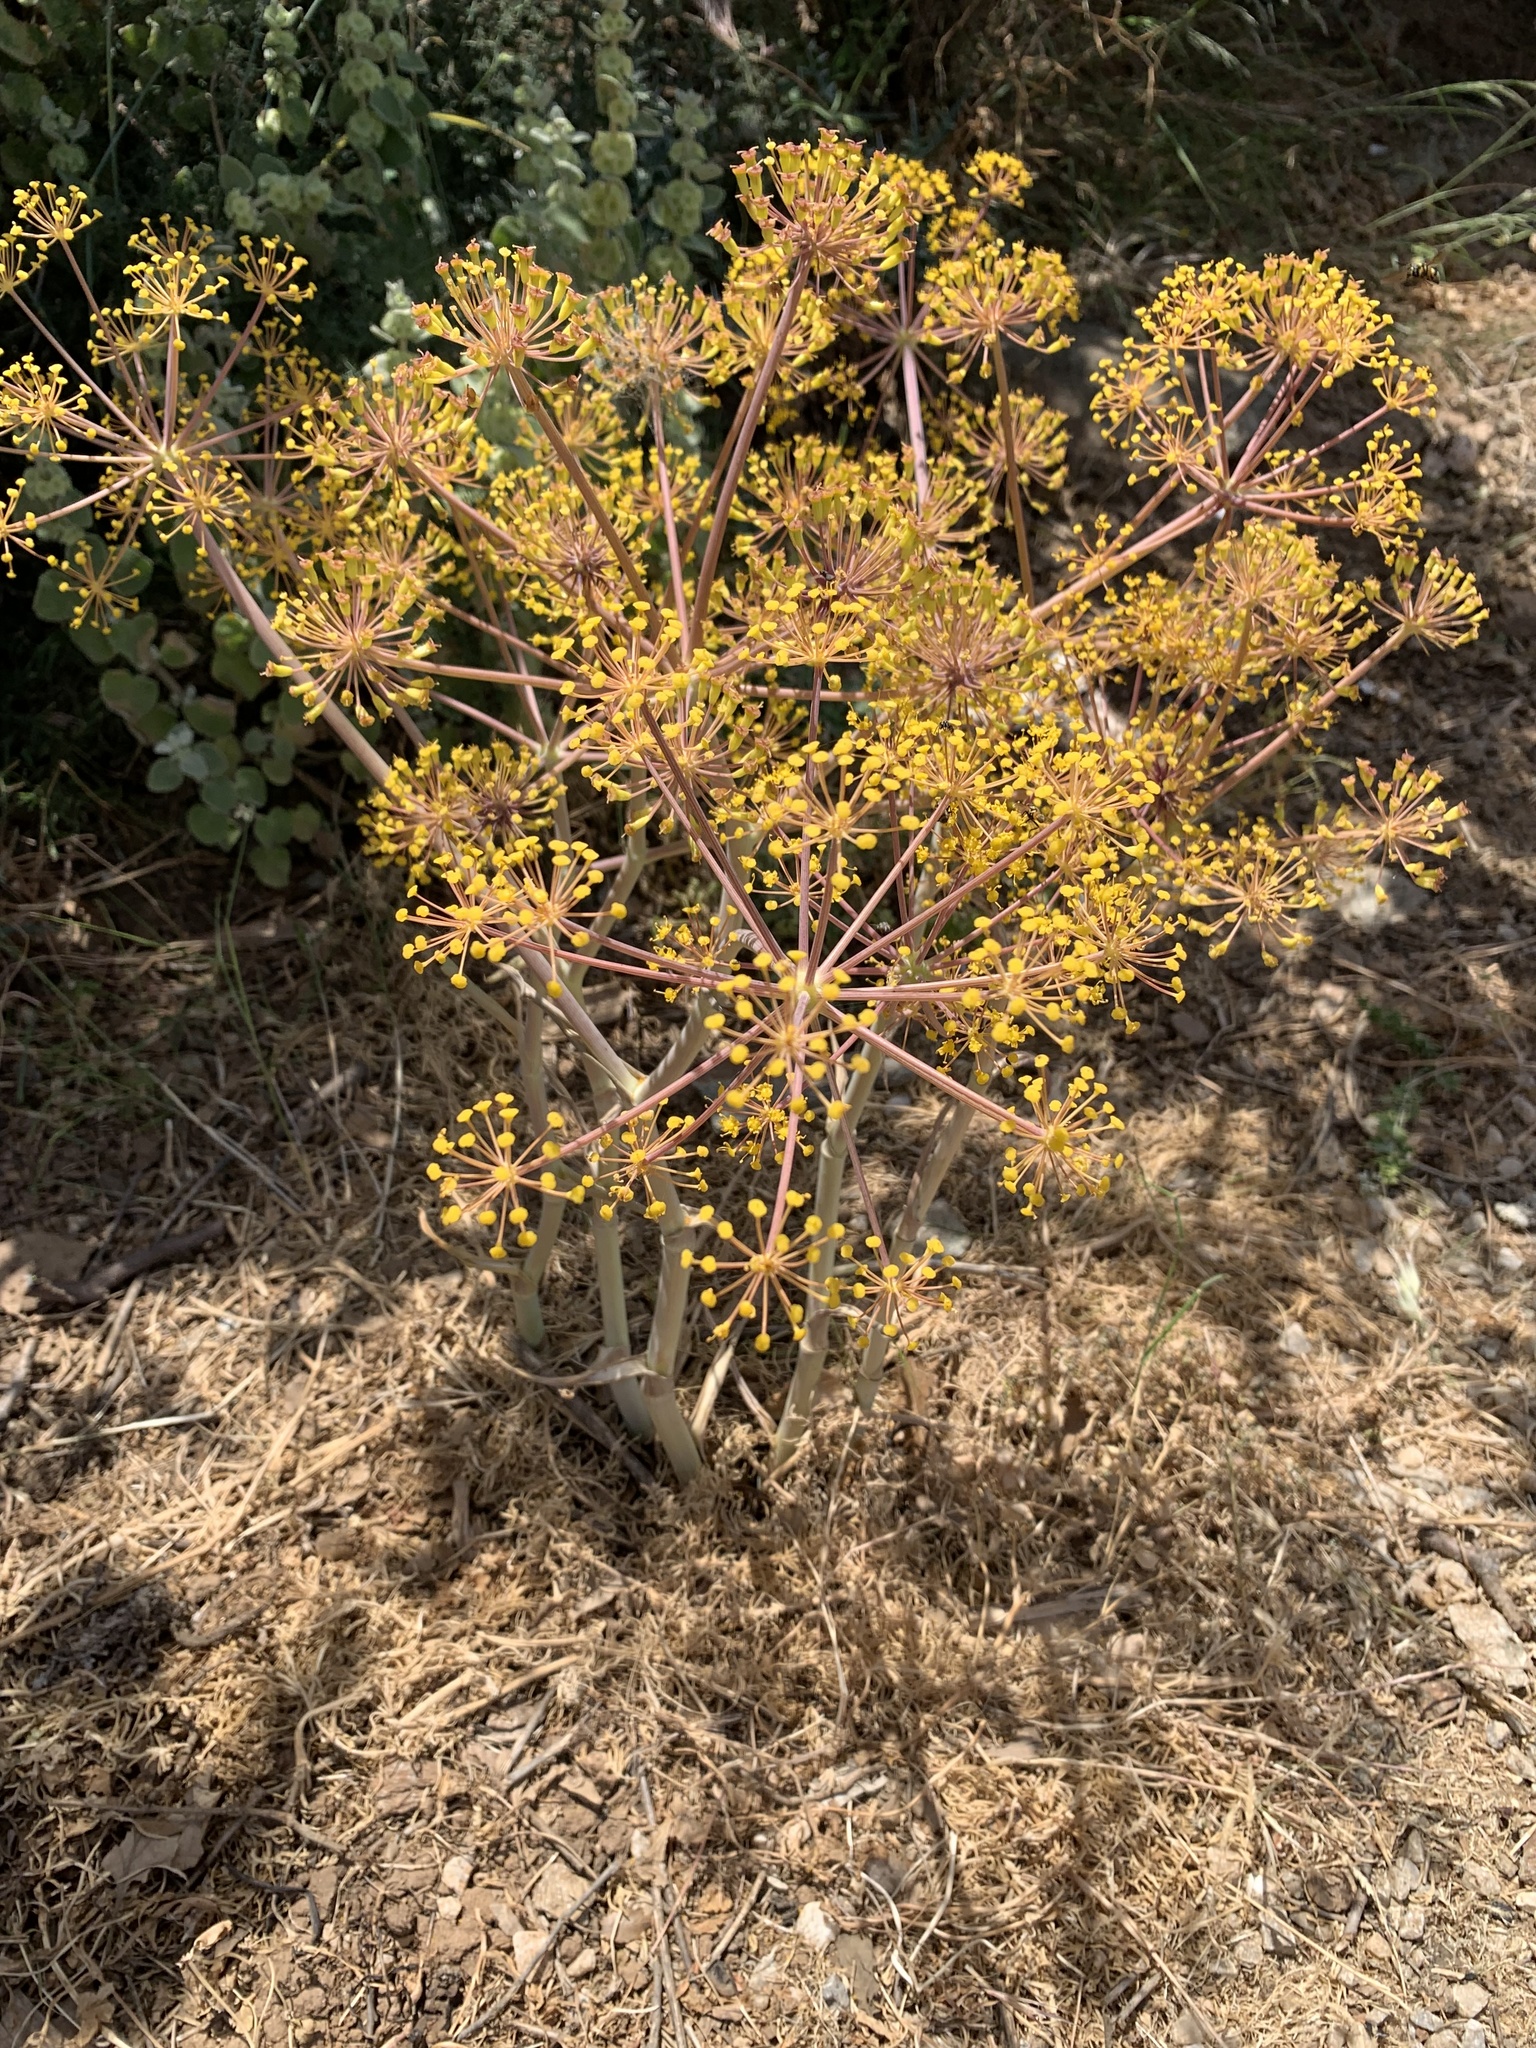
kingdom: Plantae
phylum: Tracheophyta
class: Magnoliopsida
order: Apiales
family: Apiaceae
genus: Ferula
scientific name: Ferula communis
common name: Giant fennel
